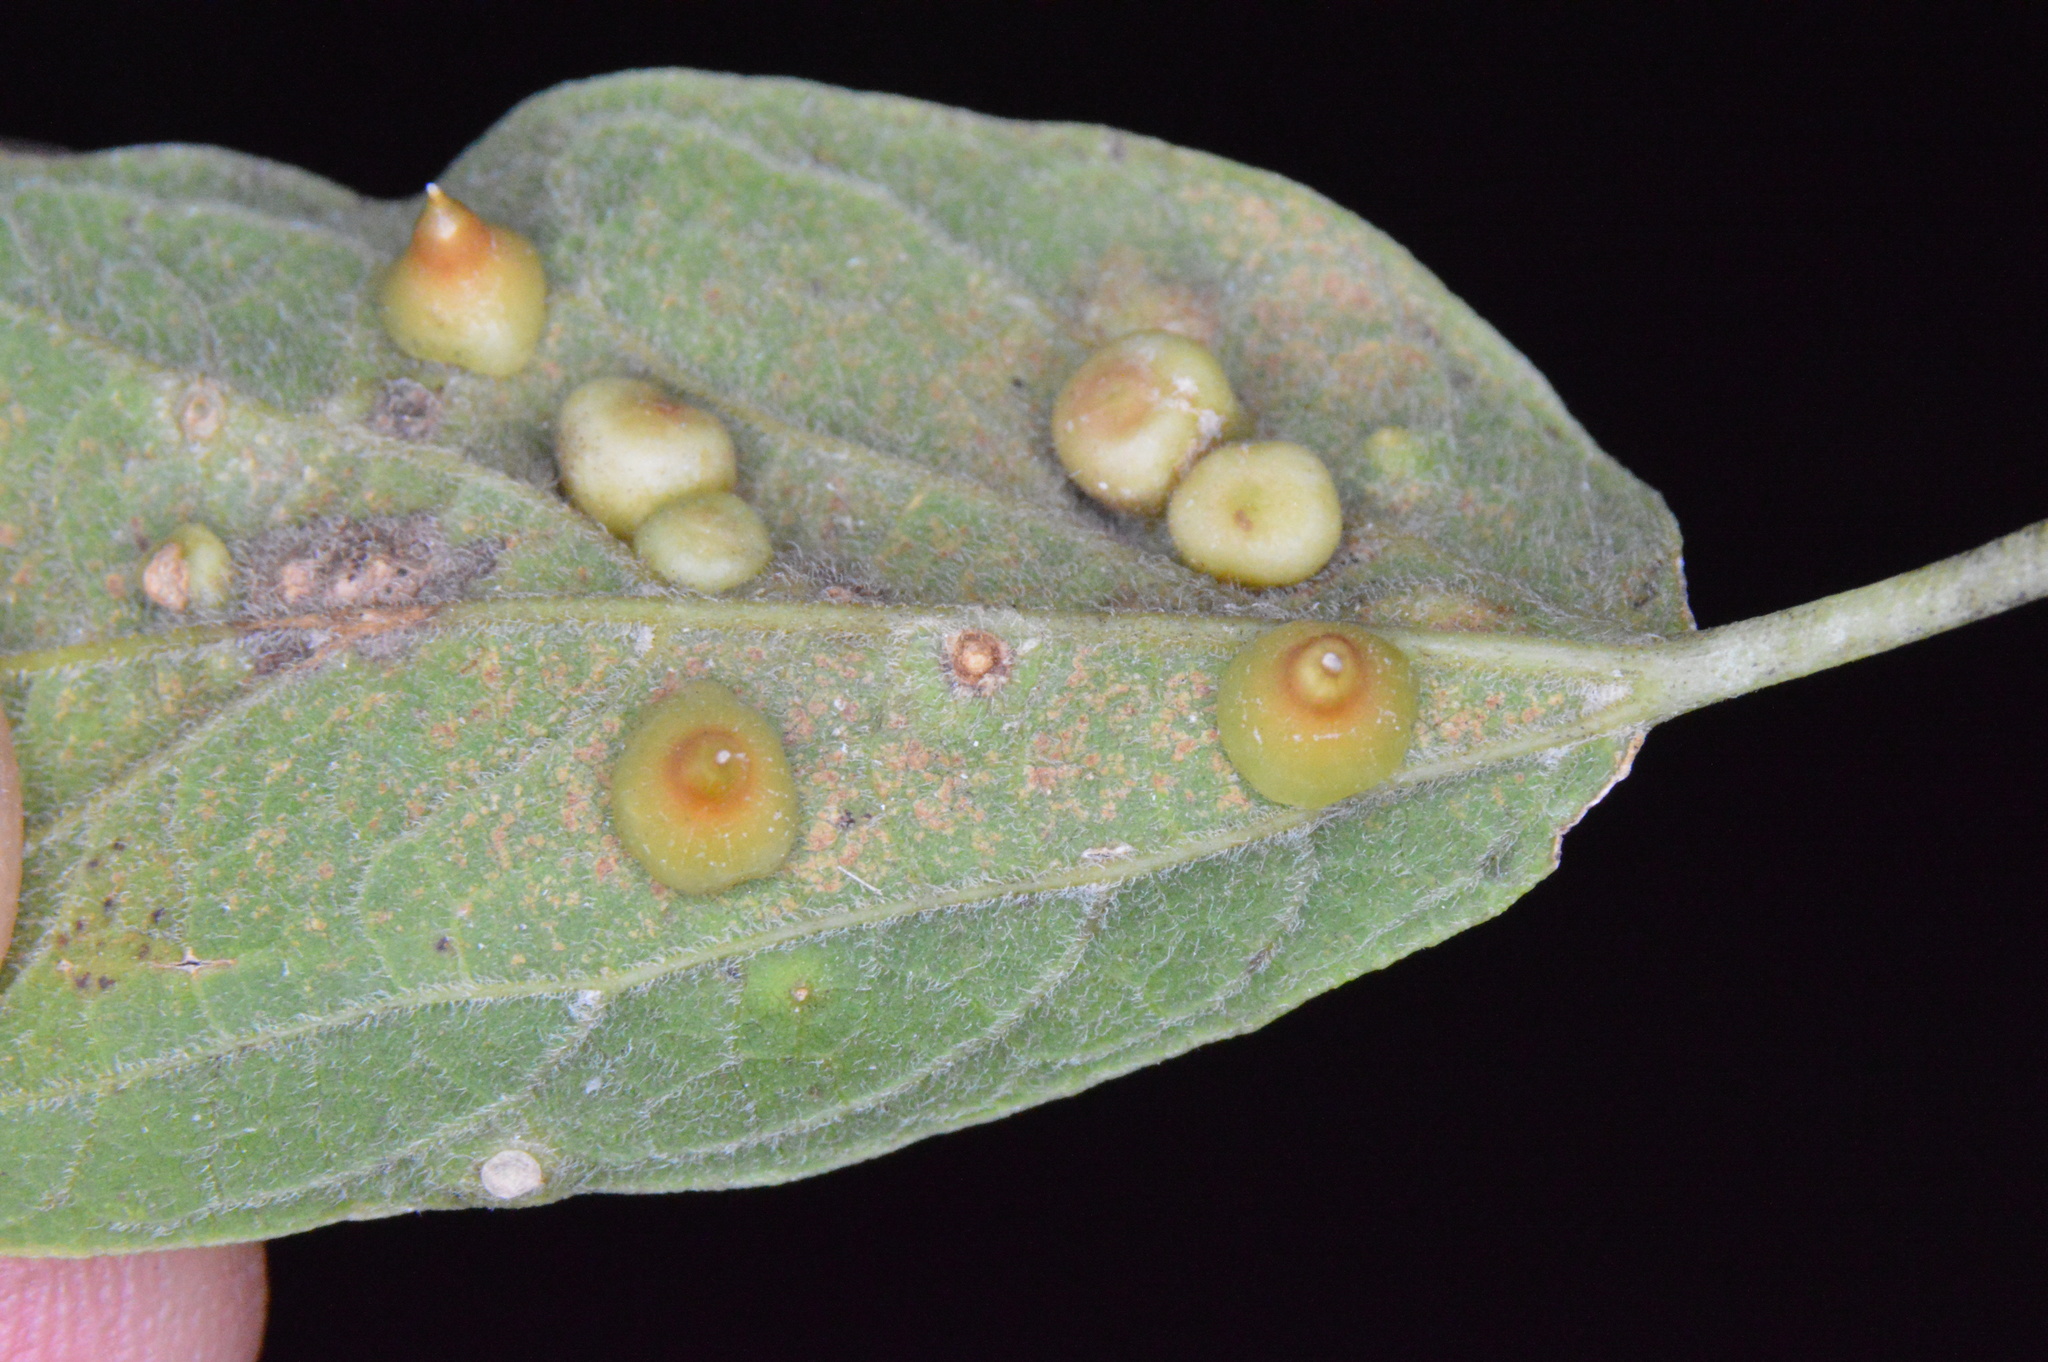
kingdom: Animalia
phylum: Arthropoda
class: Insecta
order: Diptera
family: Cecidomyiidae
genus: Celticecis
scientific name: Celticecis spiniformis
